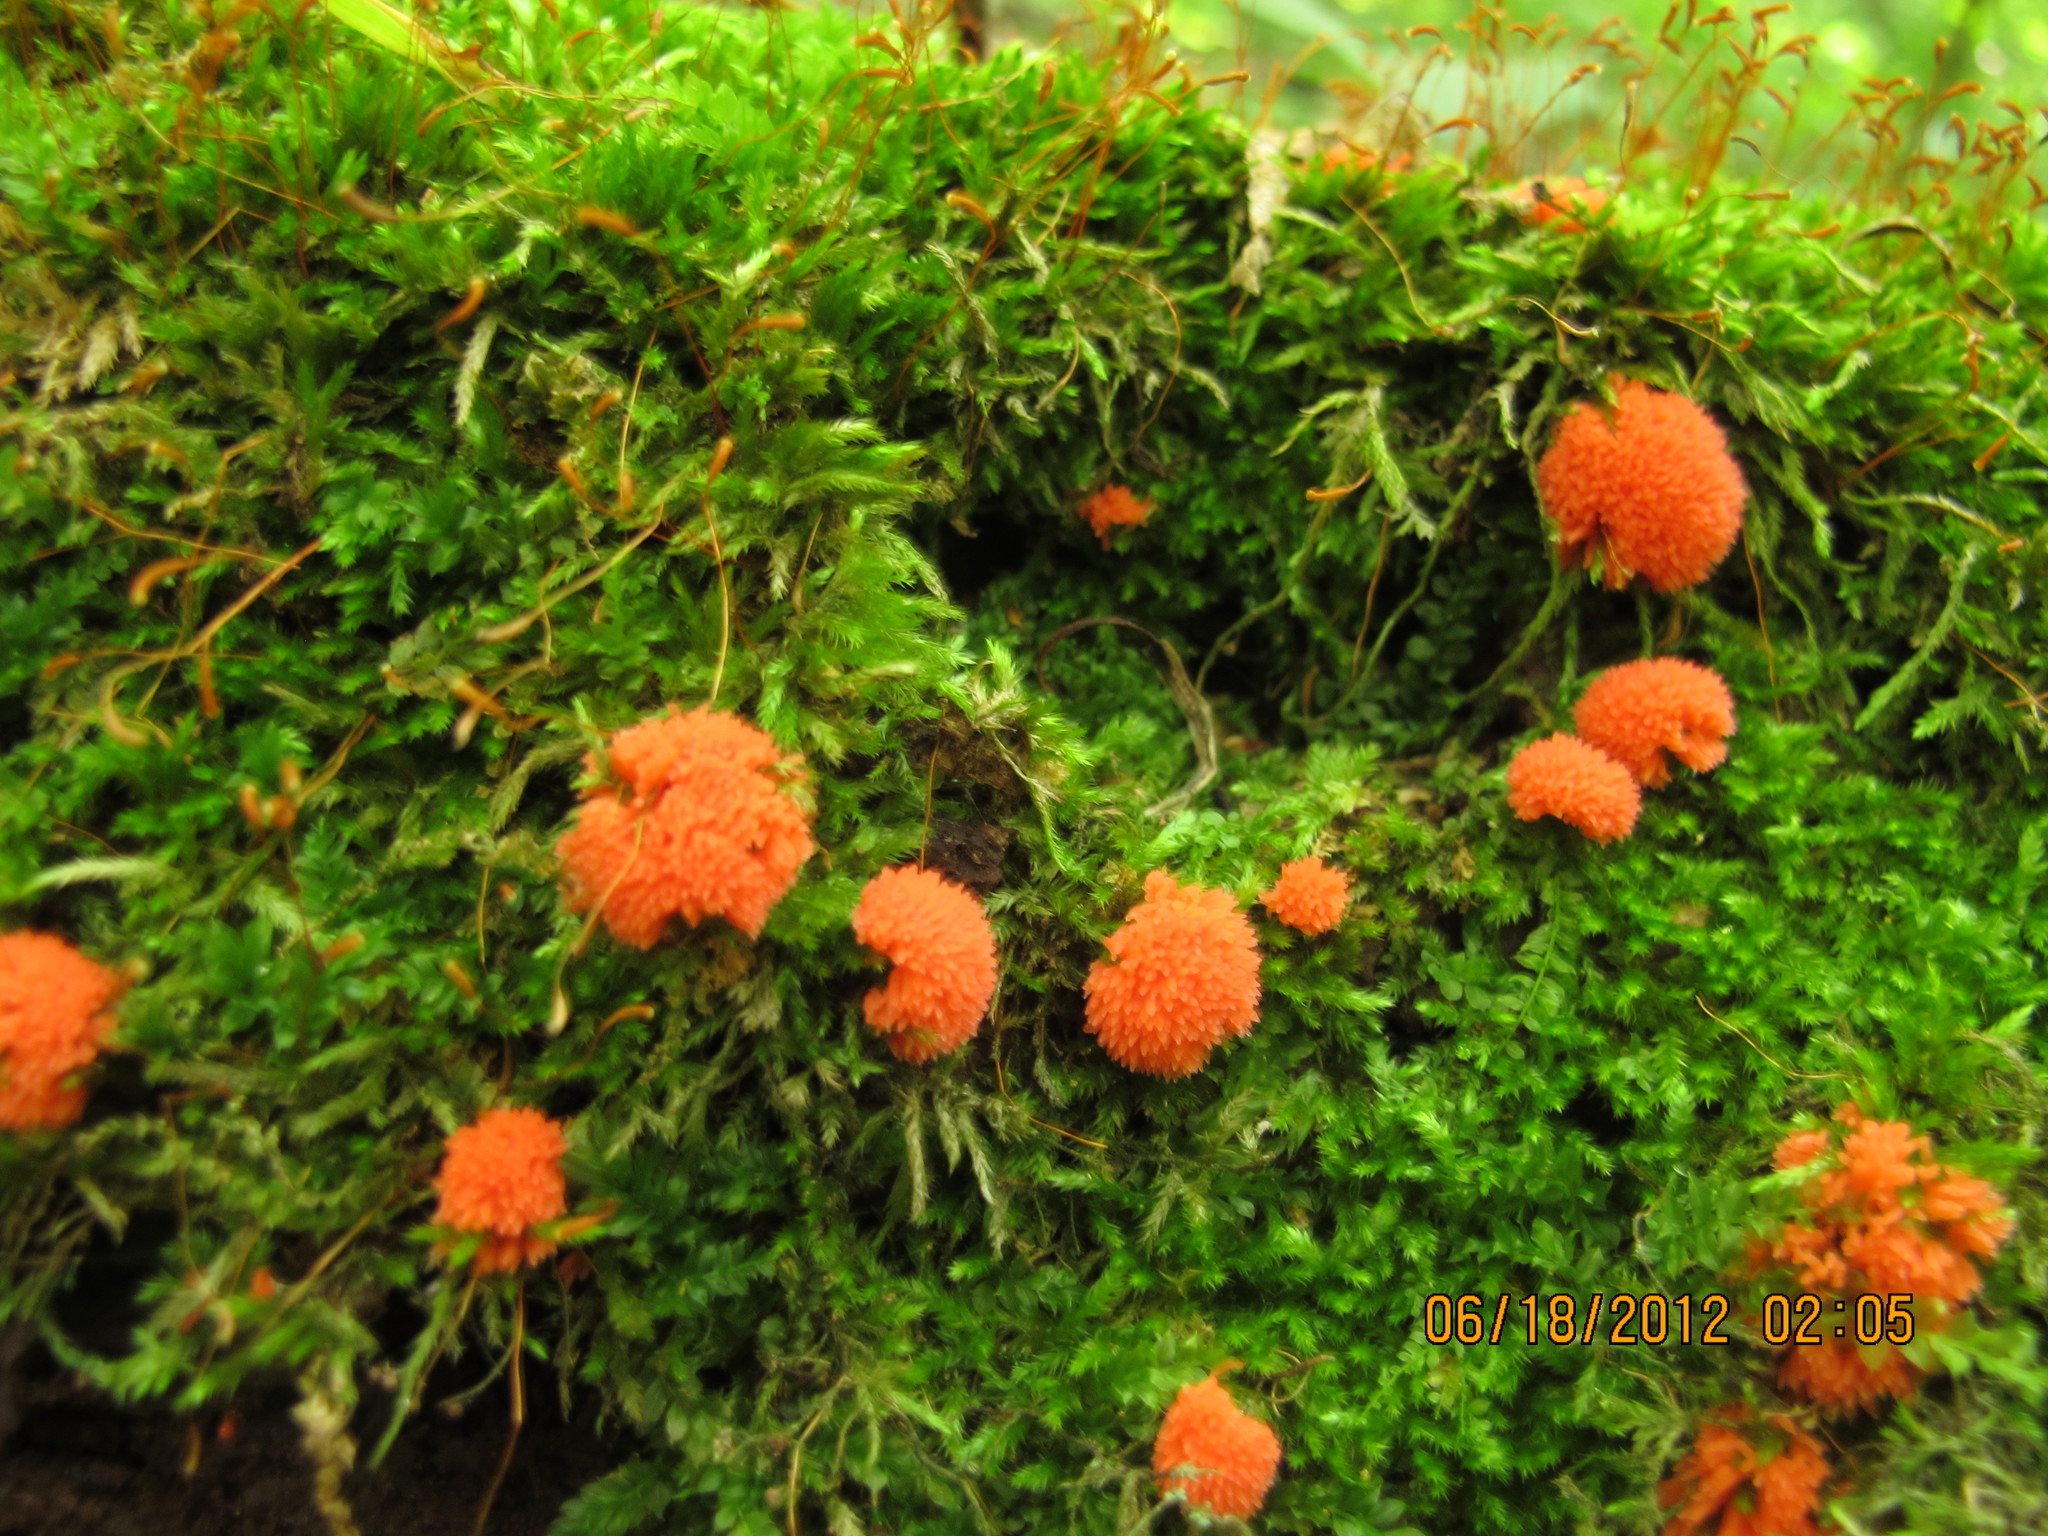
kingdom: Protozoa
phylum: Mycetozoa
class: Myxomycetes
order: Cribrariales
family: Tubiferaceae
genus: Tubifera
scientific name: Tubifera ferruginosa
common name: Red raspberry slime mold
